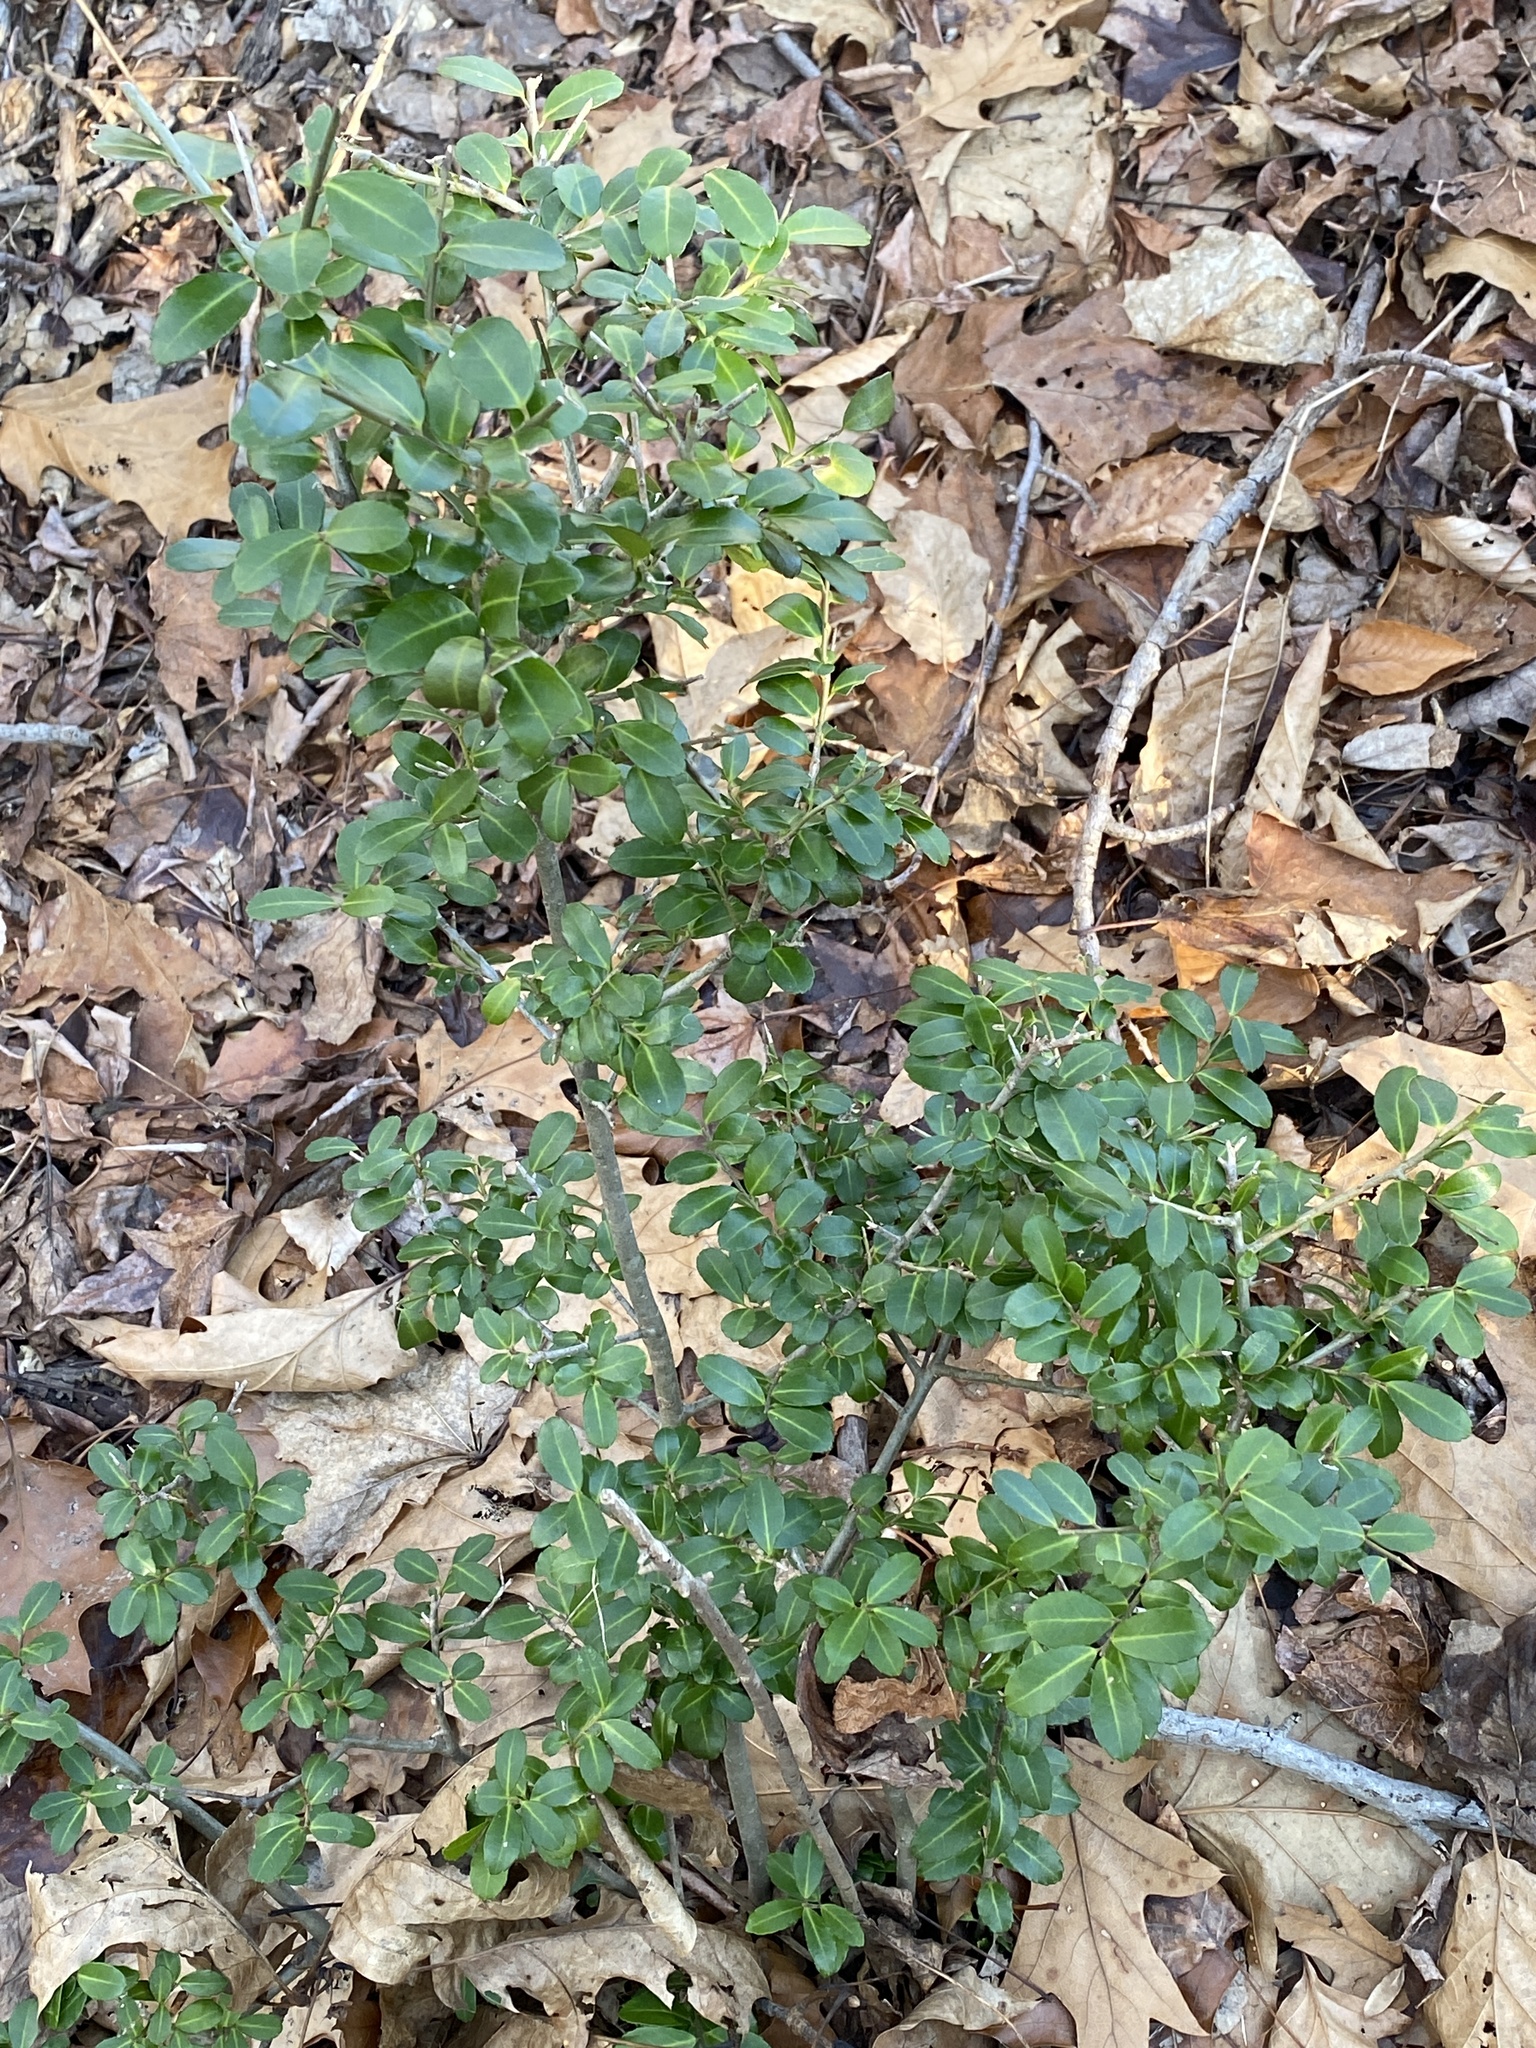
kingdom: Plantae
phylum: Tracheophyta
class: Magnoliopsida
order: Aquifoliales
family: Aquifoliaceae
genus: Ilex
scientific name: Ilex crenata
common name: Japanese holly
